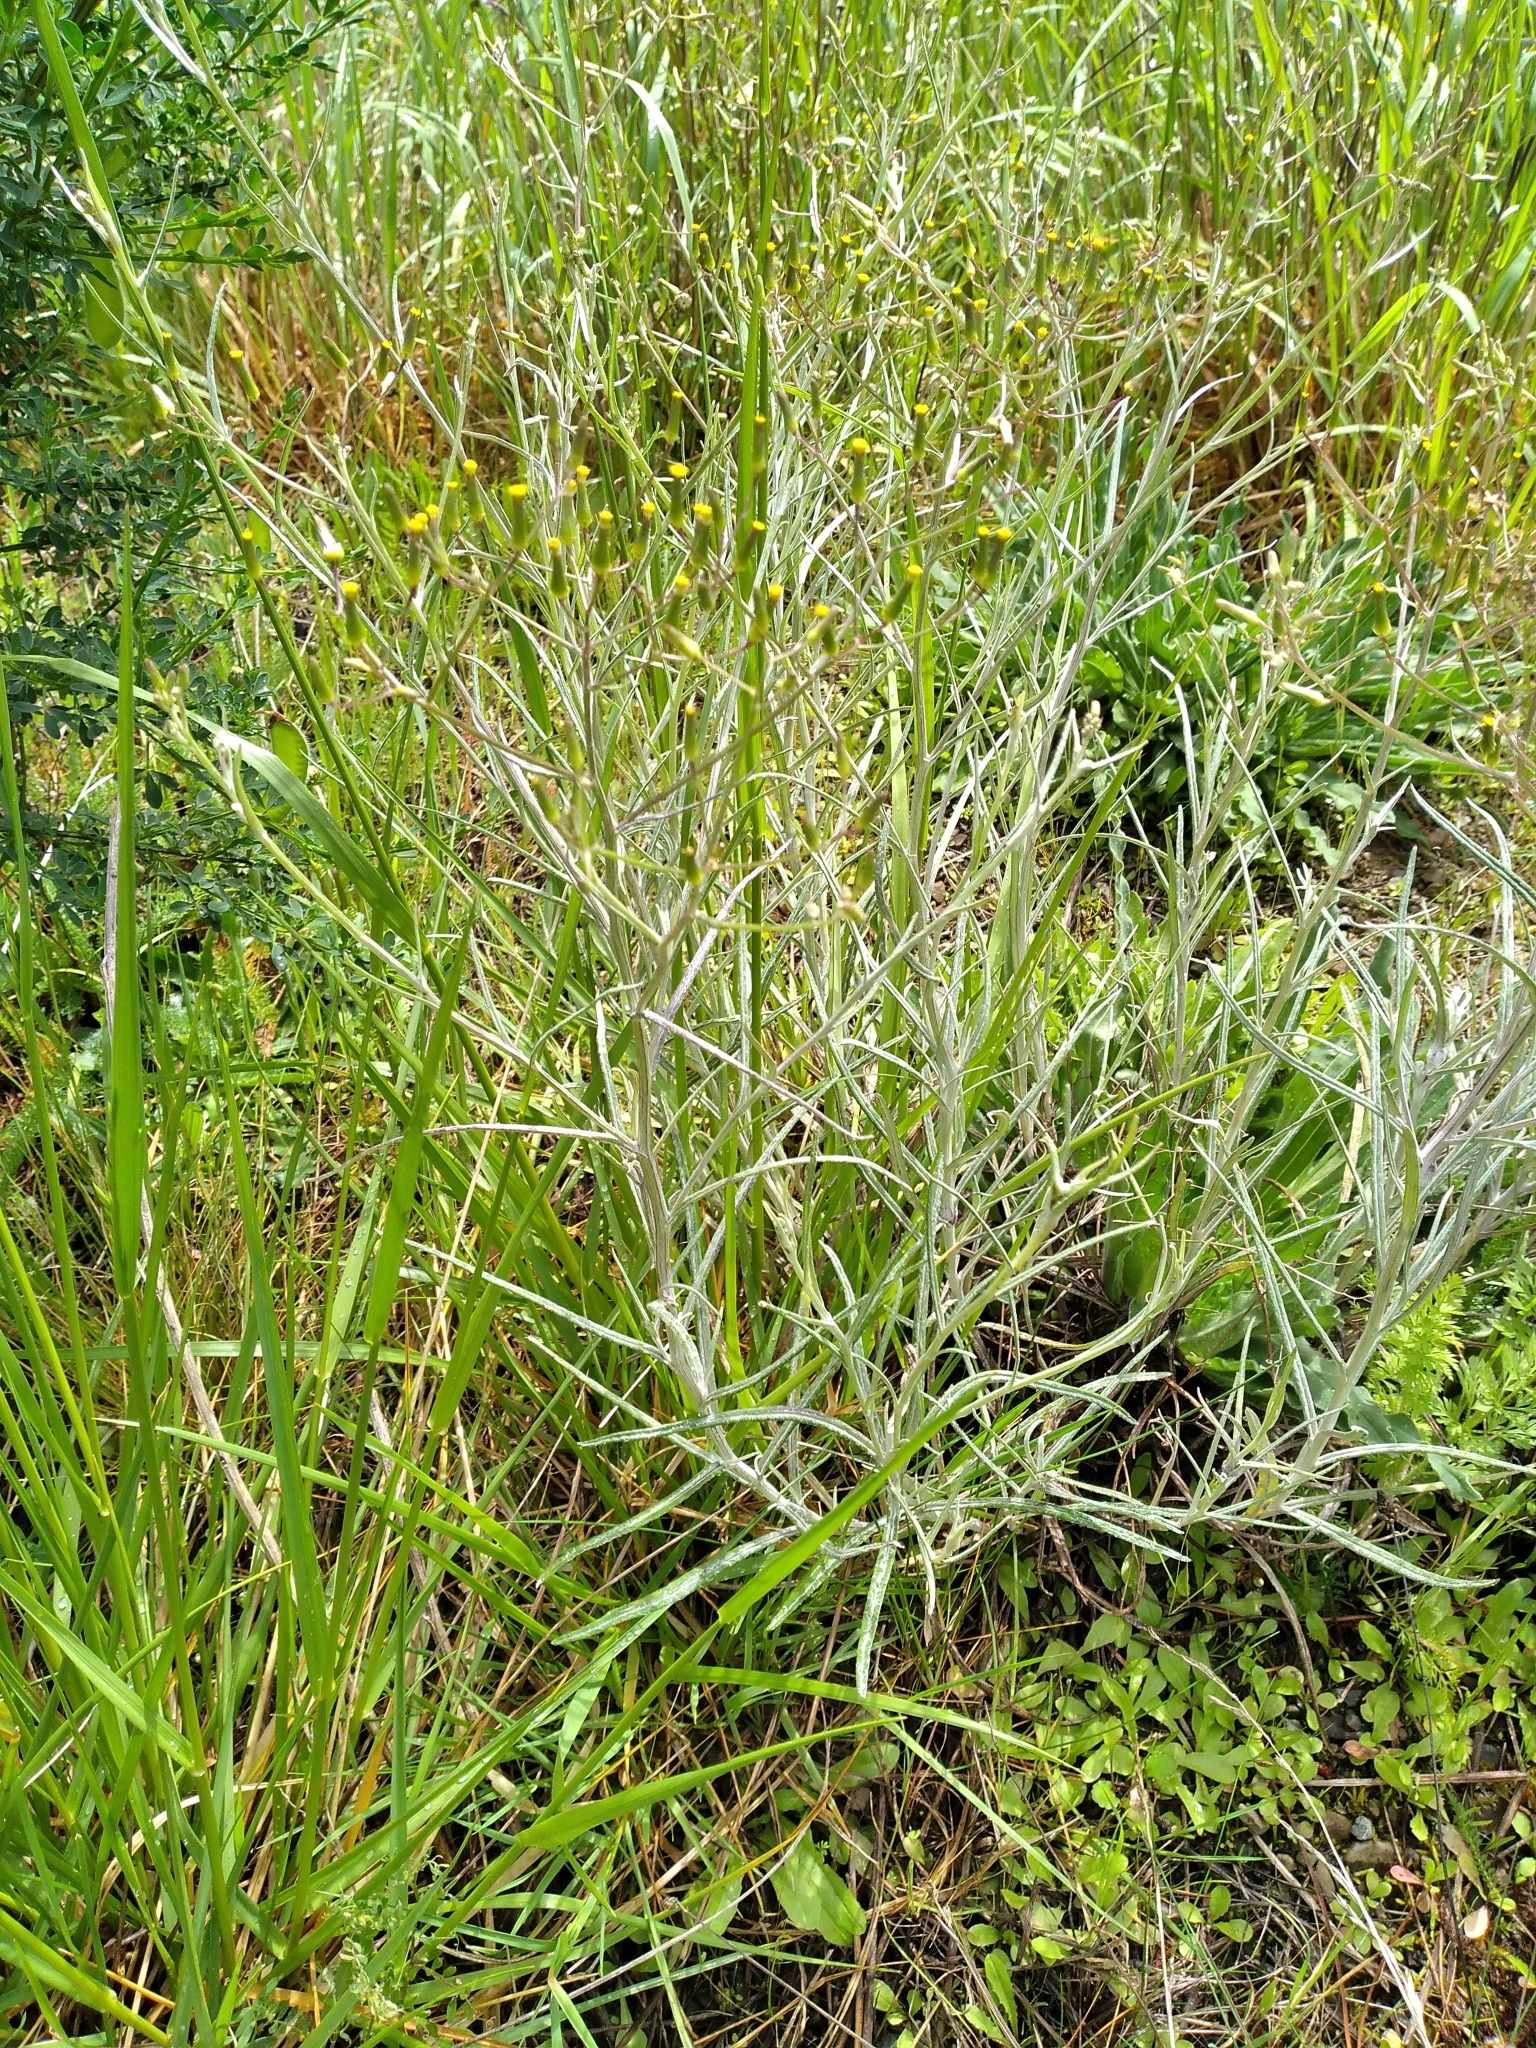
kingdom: Plantae
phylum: Tracheophyta
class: Magnoliopsida
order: Asterales
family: Asteraceae
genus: Senecio
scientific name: Senecio quadridentatus
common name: Cotton fireweed
